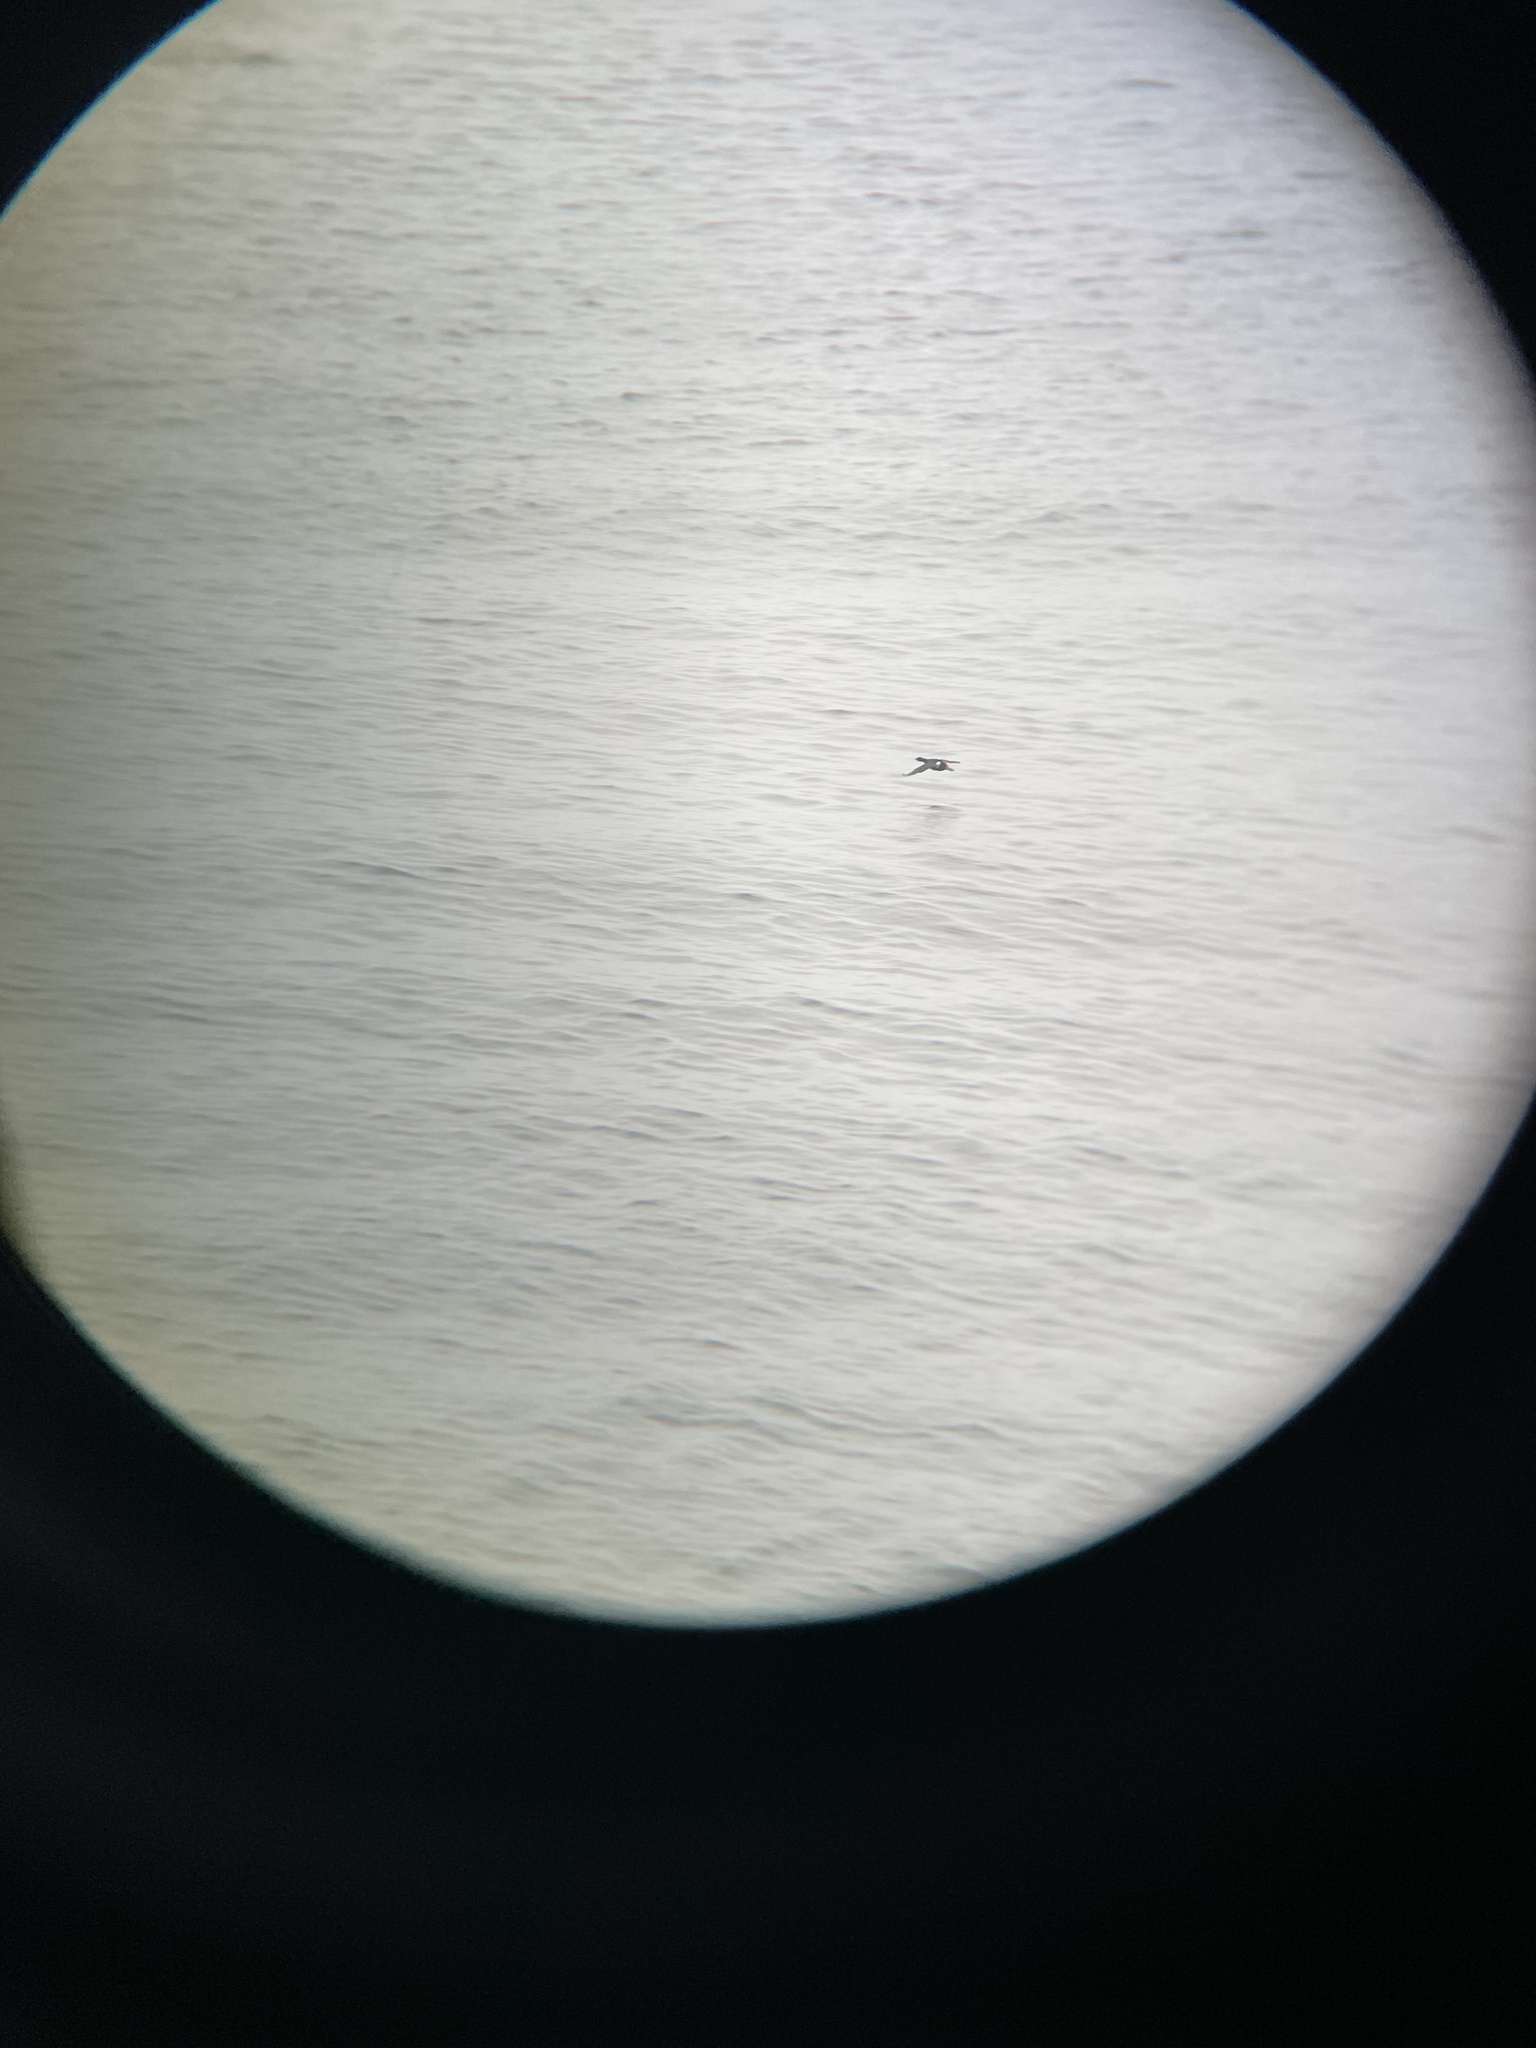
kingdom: Animalia
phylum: Chordata
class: Aves
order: Suliformes
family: Phalacrocoracidae
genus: Phalacrocorax
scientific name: Phalacrocorax pelagicus
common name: Pelagic cormorant
